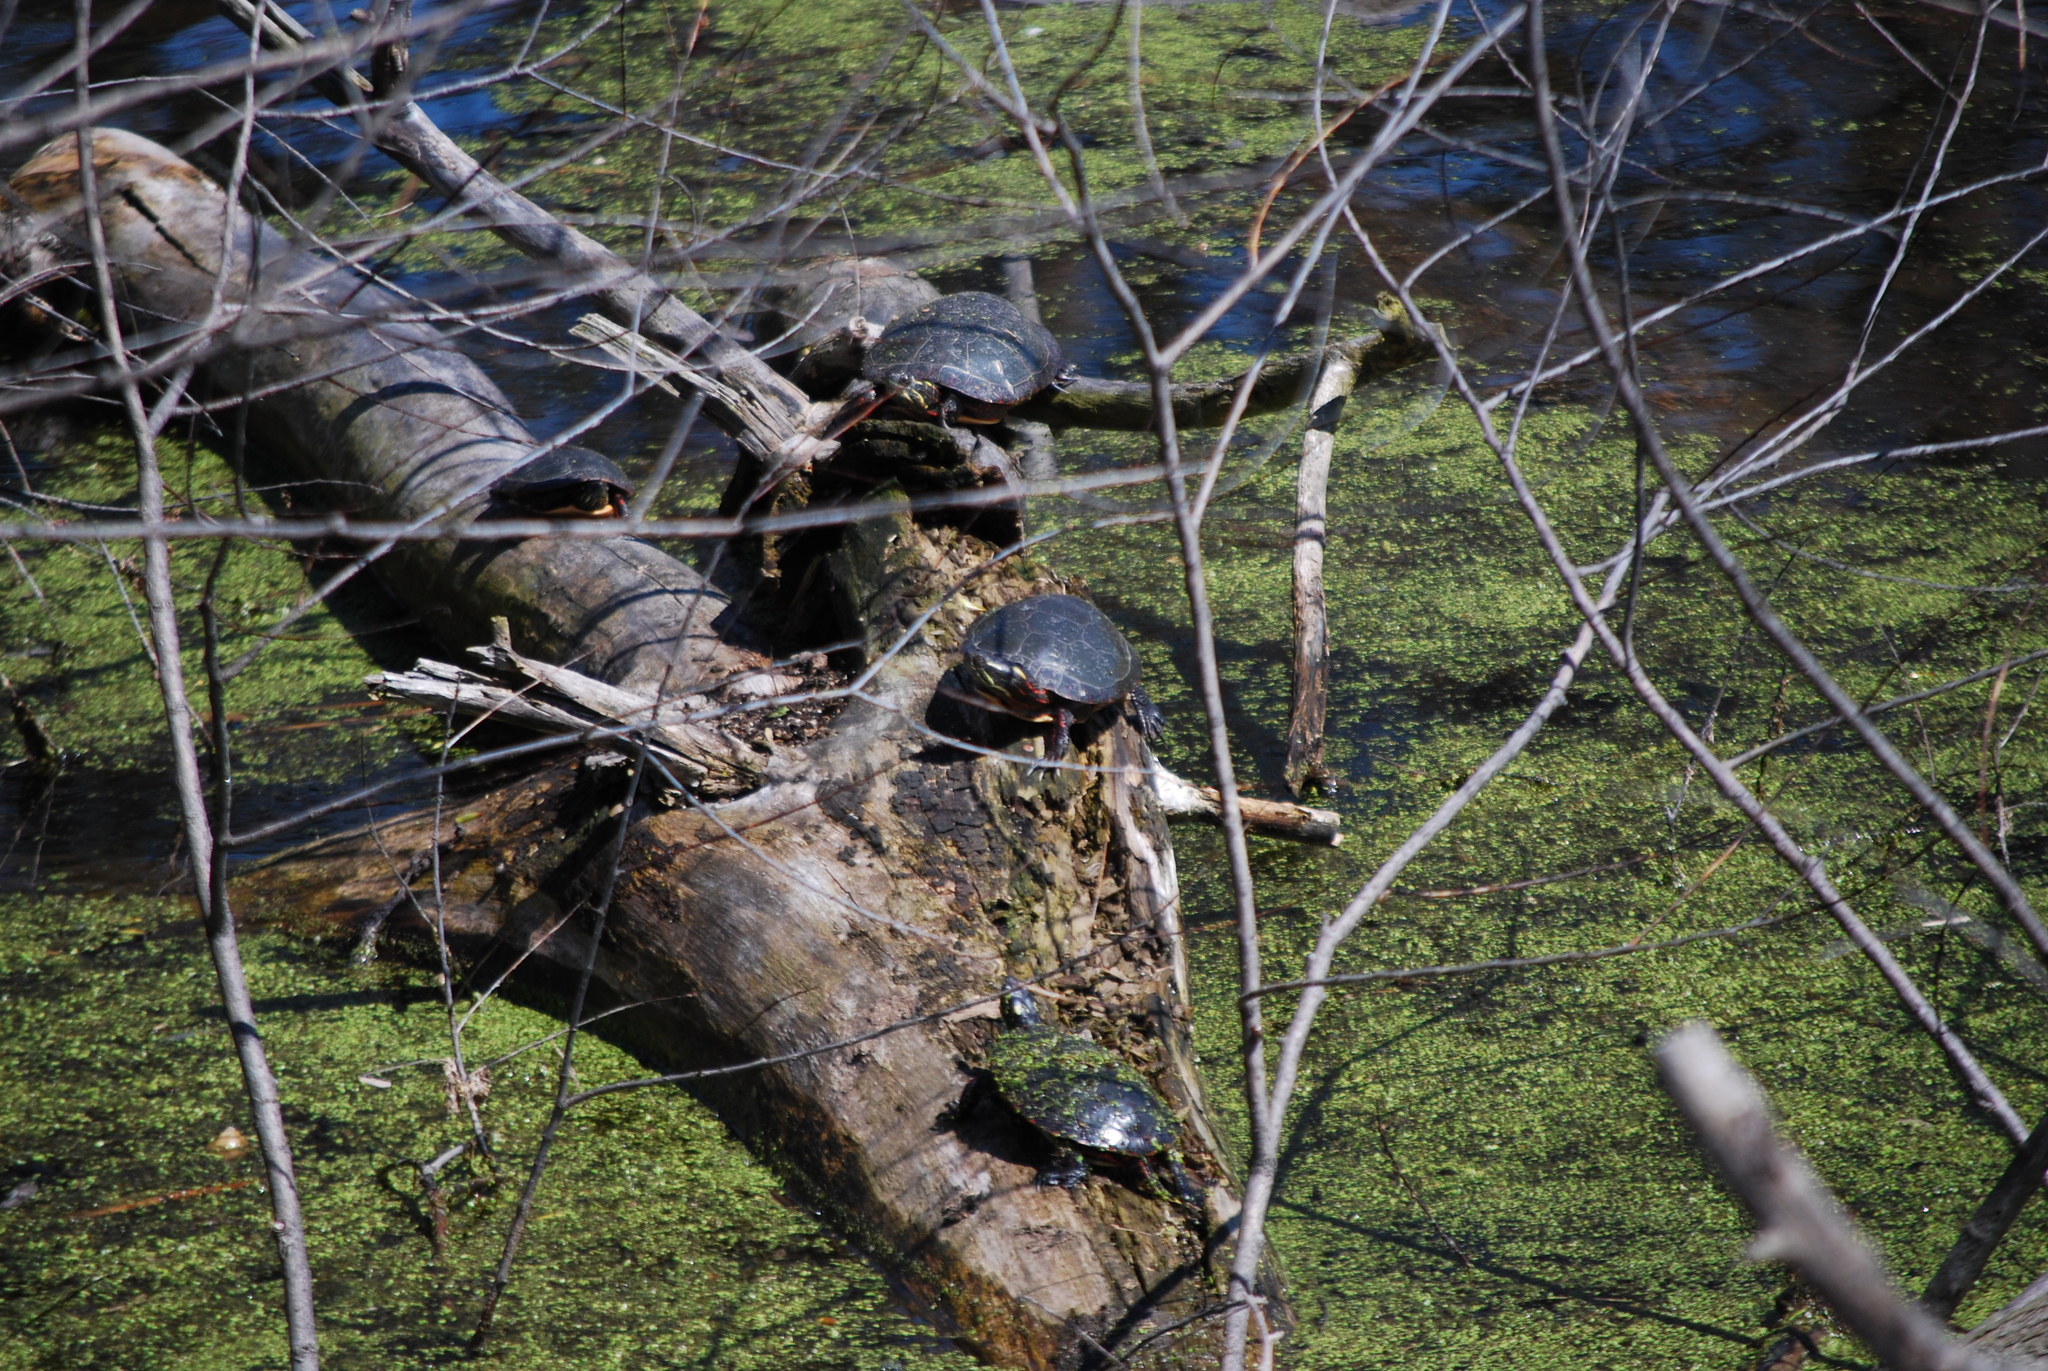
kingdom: Animalia
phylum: Chordata
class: Testudines
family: Emydidae
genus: Chrysemys
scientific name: Chrysemys picta
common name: Painted turtle
